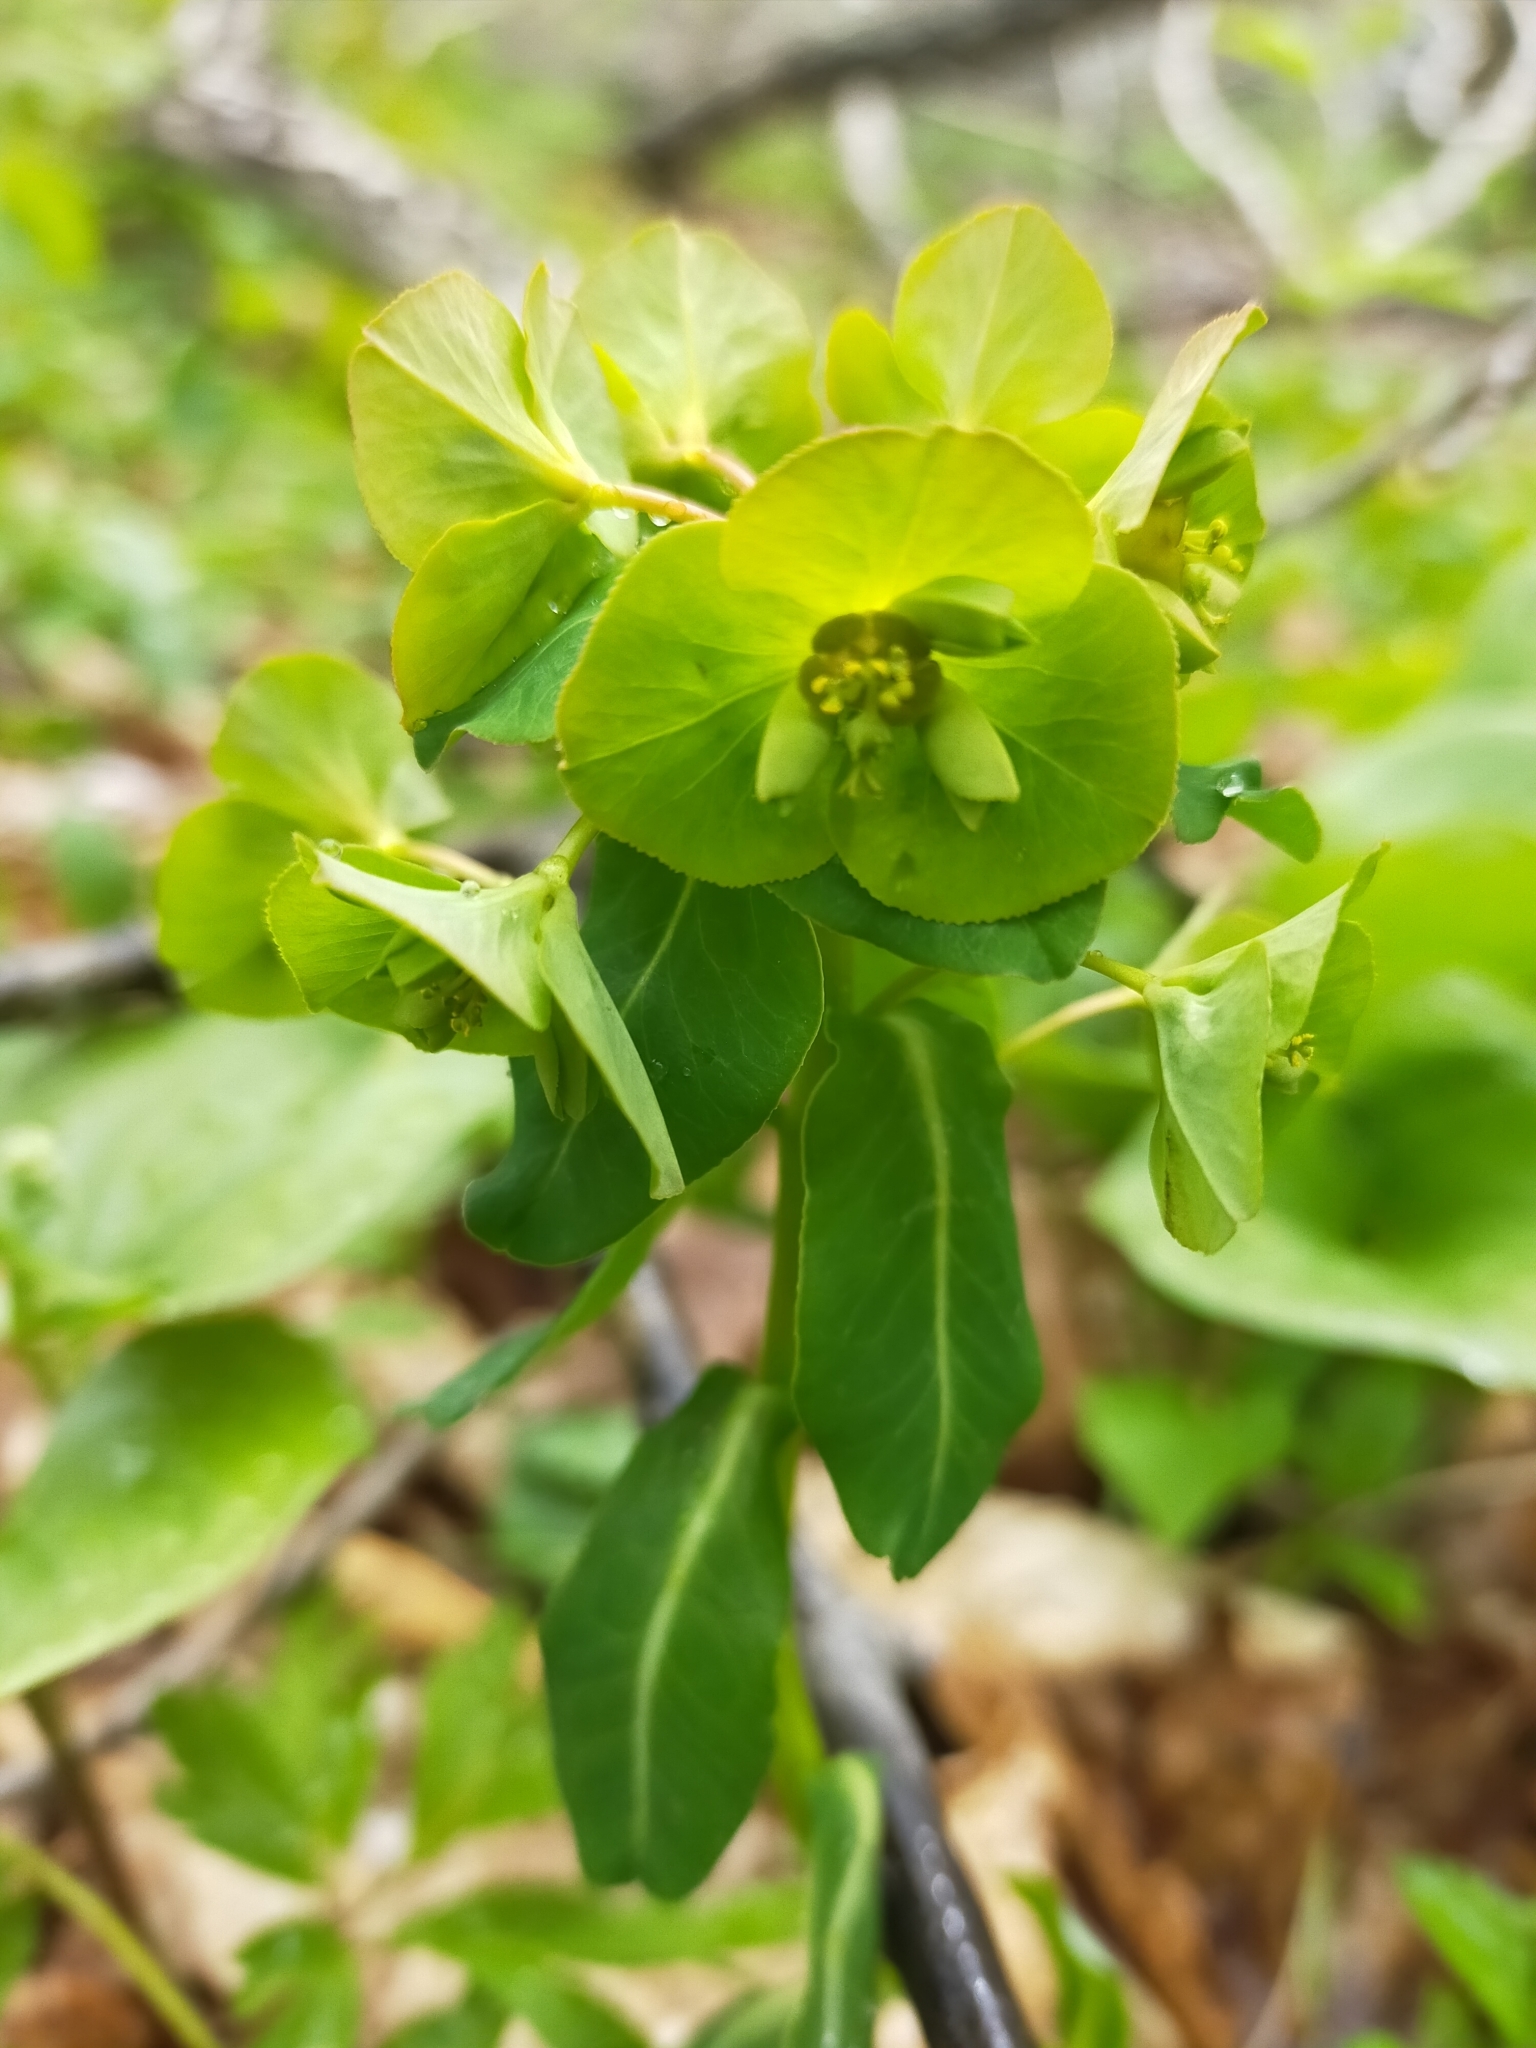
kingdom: Plantae
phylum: Tracheophyta
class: Magnoliopsida
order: Malpighiales
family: Euphorbiaceae
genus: Euphorbia
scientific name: Euphorbia lucorum
